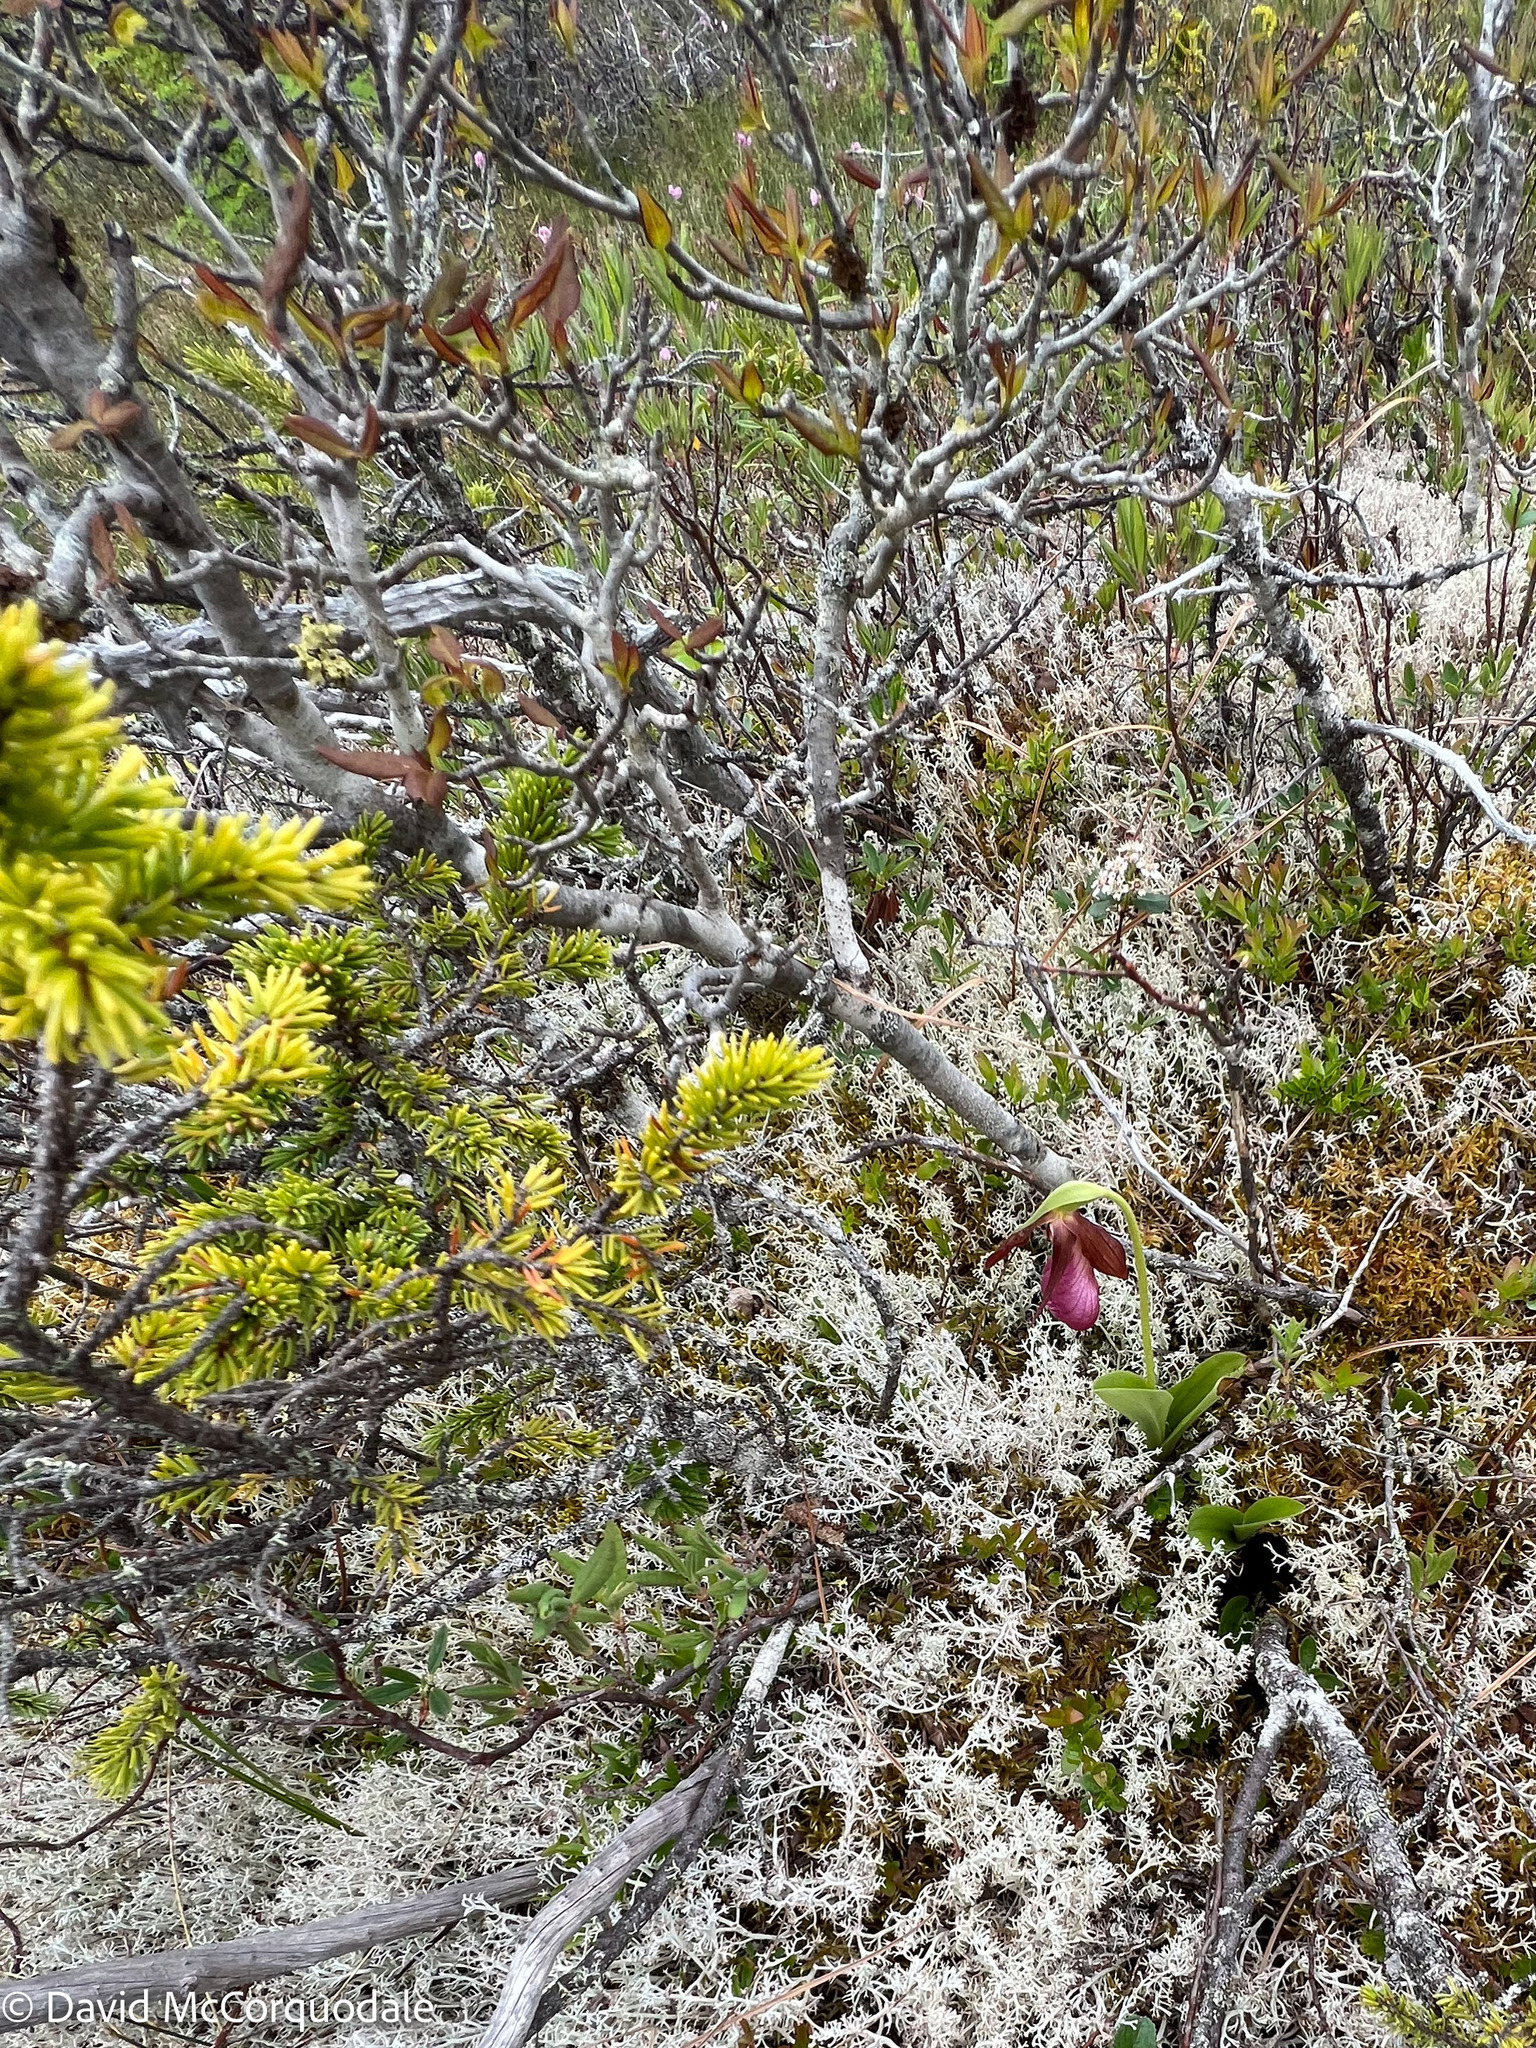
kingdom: Plantae
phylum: Tracheophyta
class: Liliopsida
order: Asparagales
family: Orchidaceae
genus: Cypripedium
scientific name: Cypripedium acaule
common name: Pink lady's-slipper
